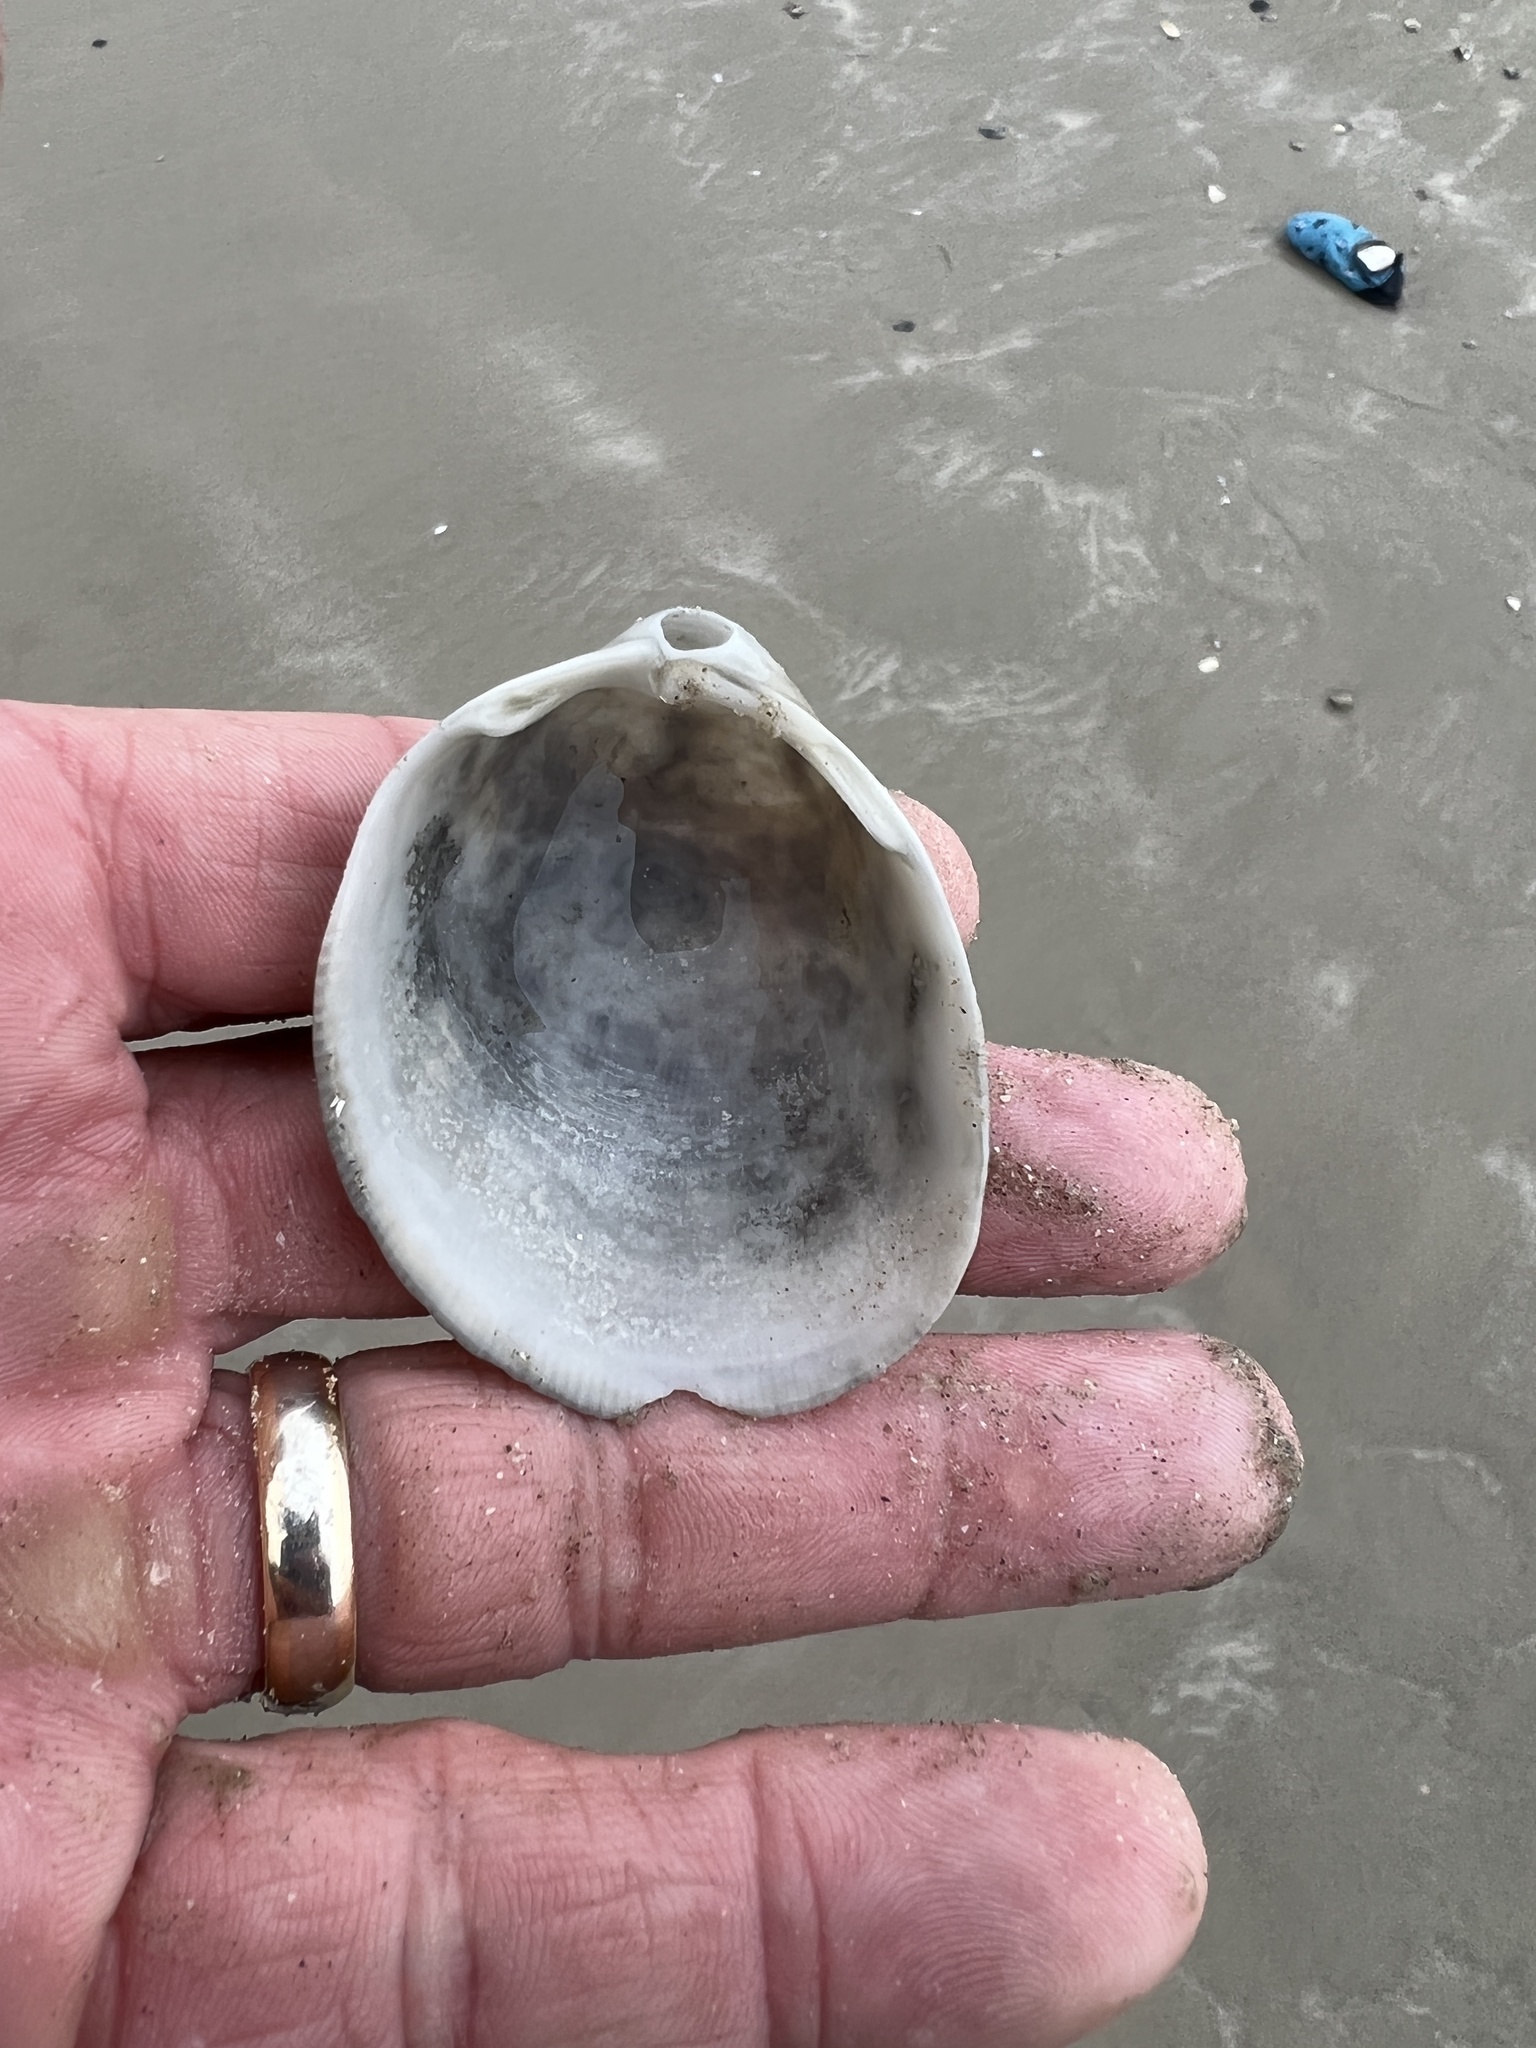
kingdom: Animalia
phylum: Mollusca
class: Bivalvia
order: Cardiida
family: Cardiidae
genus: Laevicardium
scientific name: Laevicardium serratum
